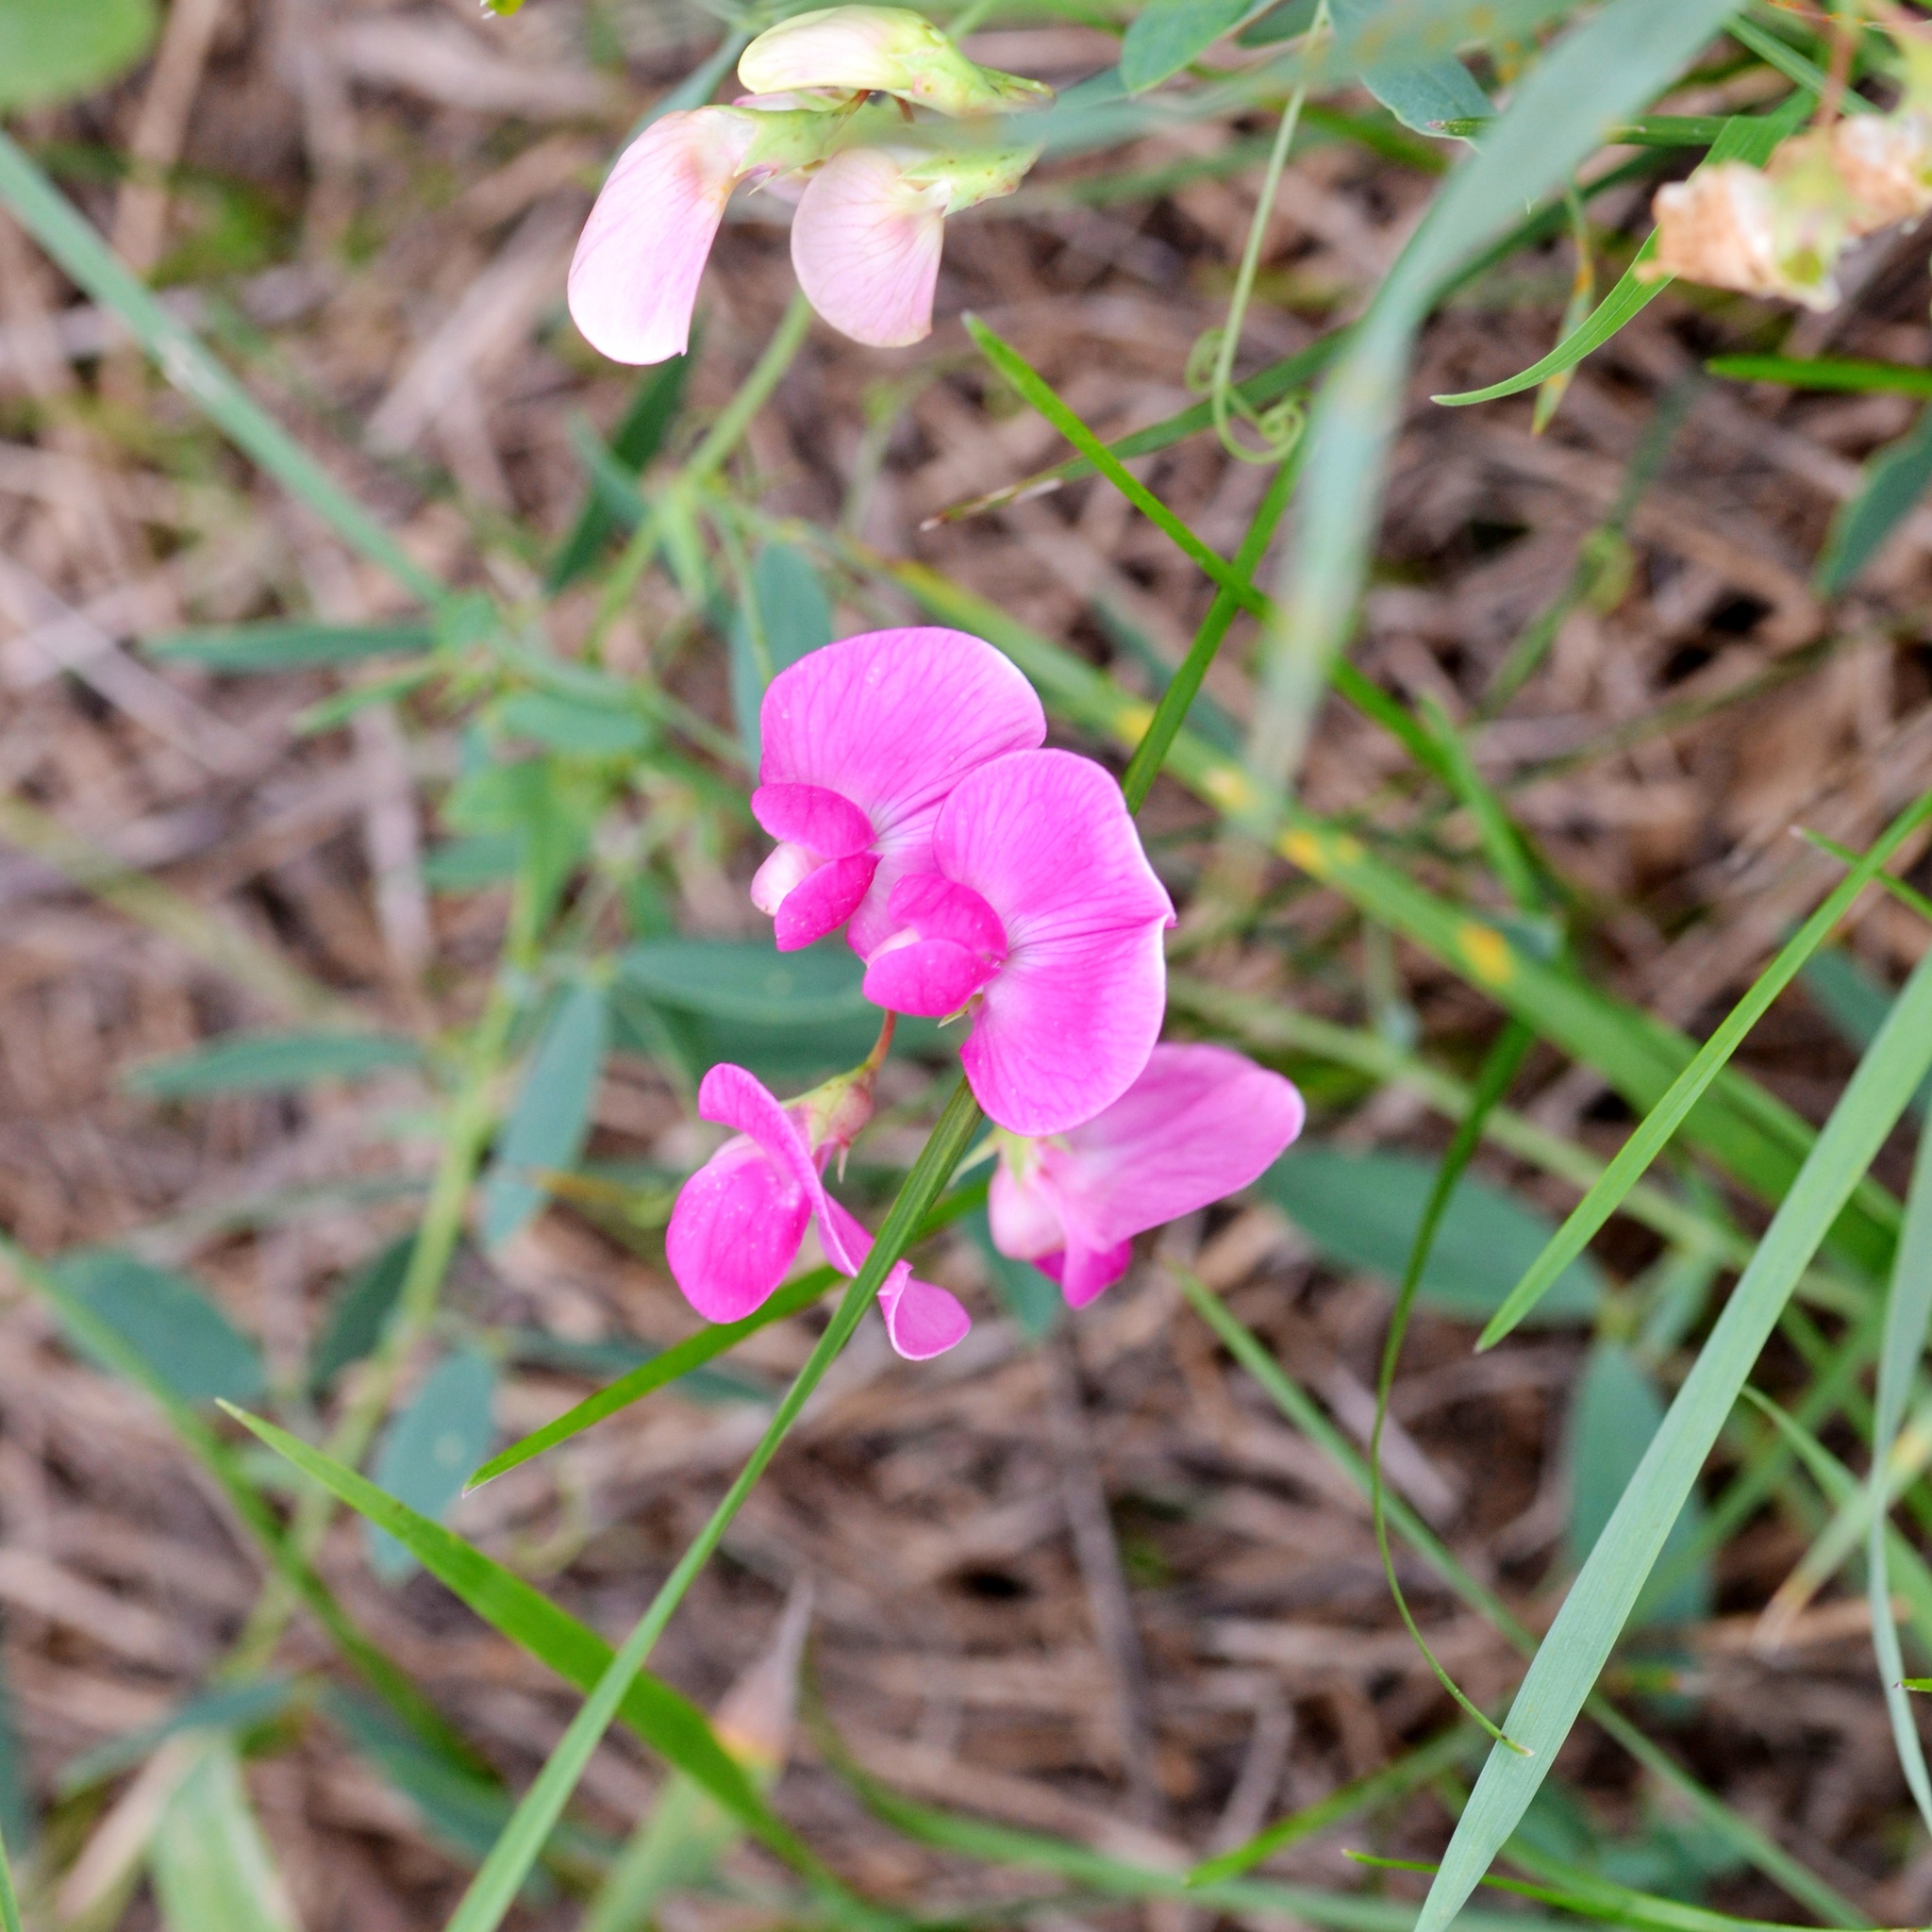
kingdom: Plantae
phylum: Tracheophyta
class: Magnoliopsida
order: Fabales
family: Fabaceae
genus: Lathyrus
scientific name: Lathyrus tuberosus
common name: Tuberous pea
